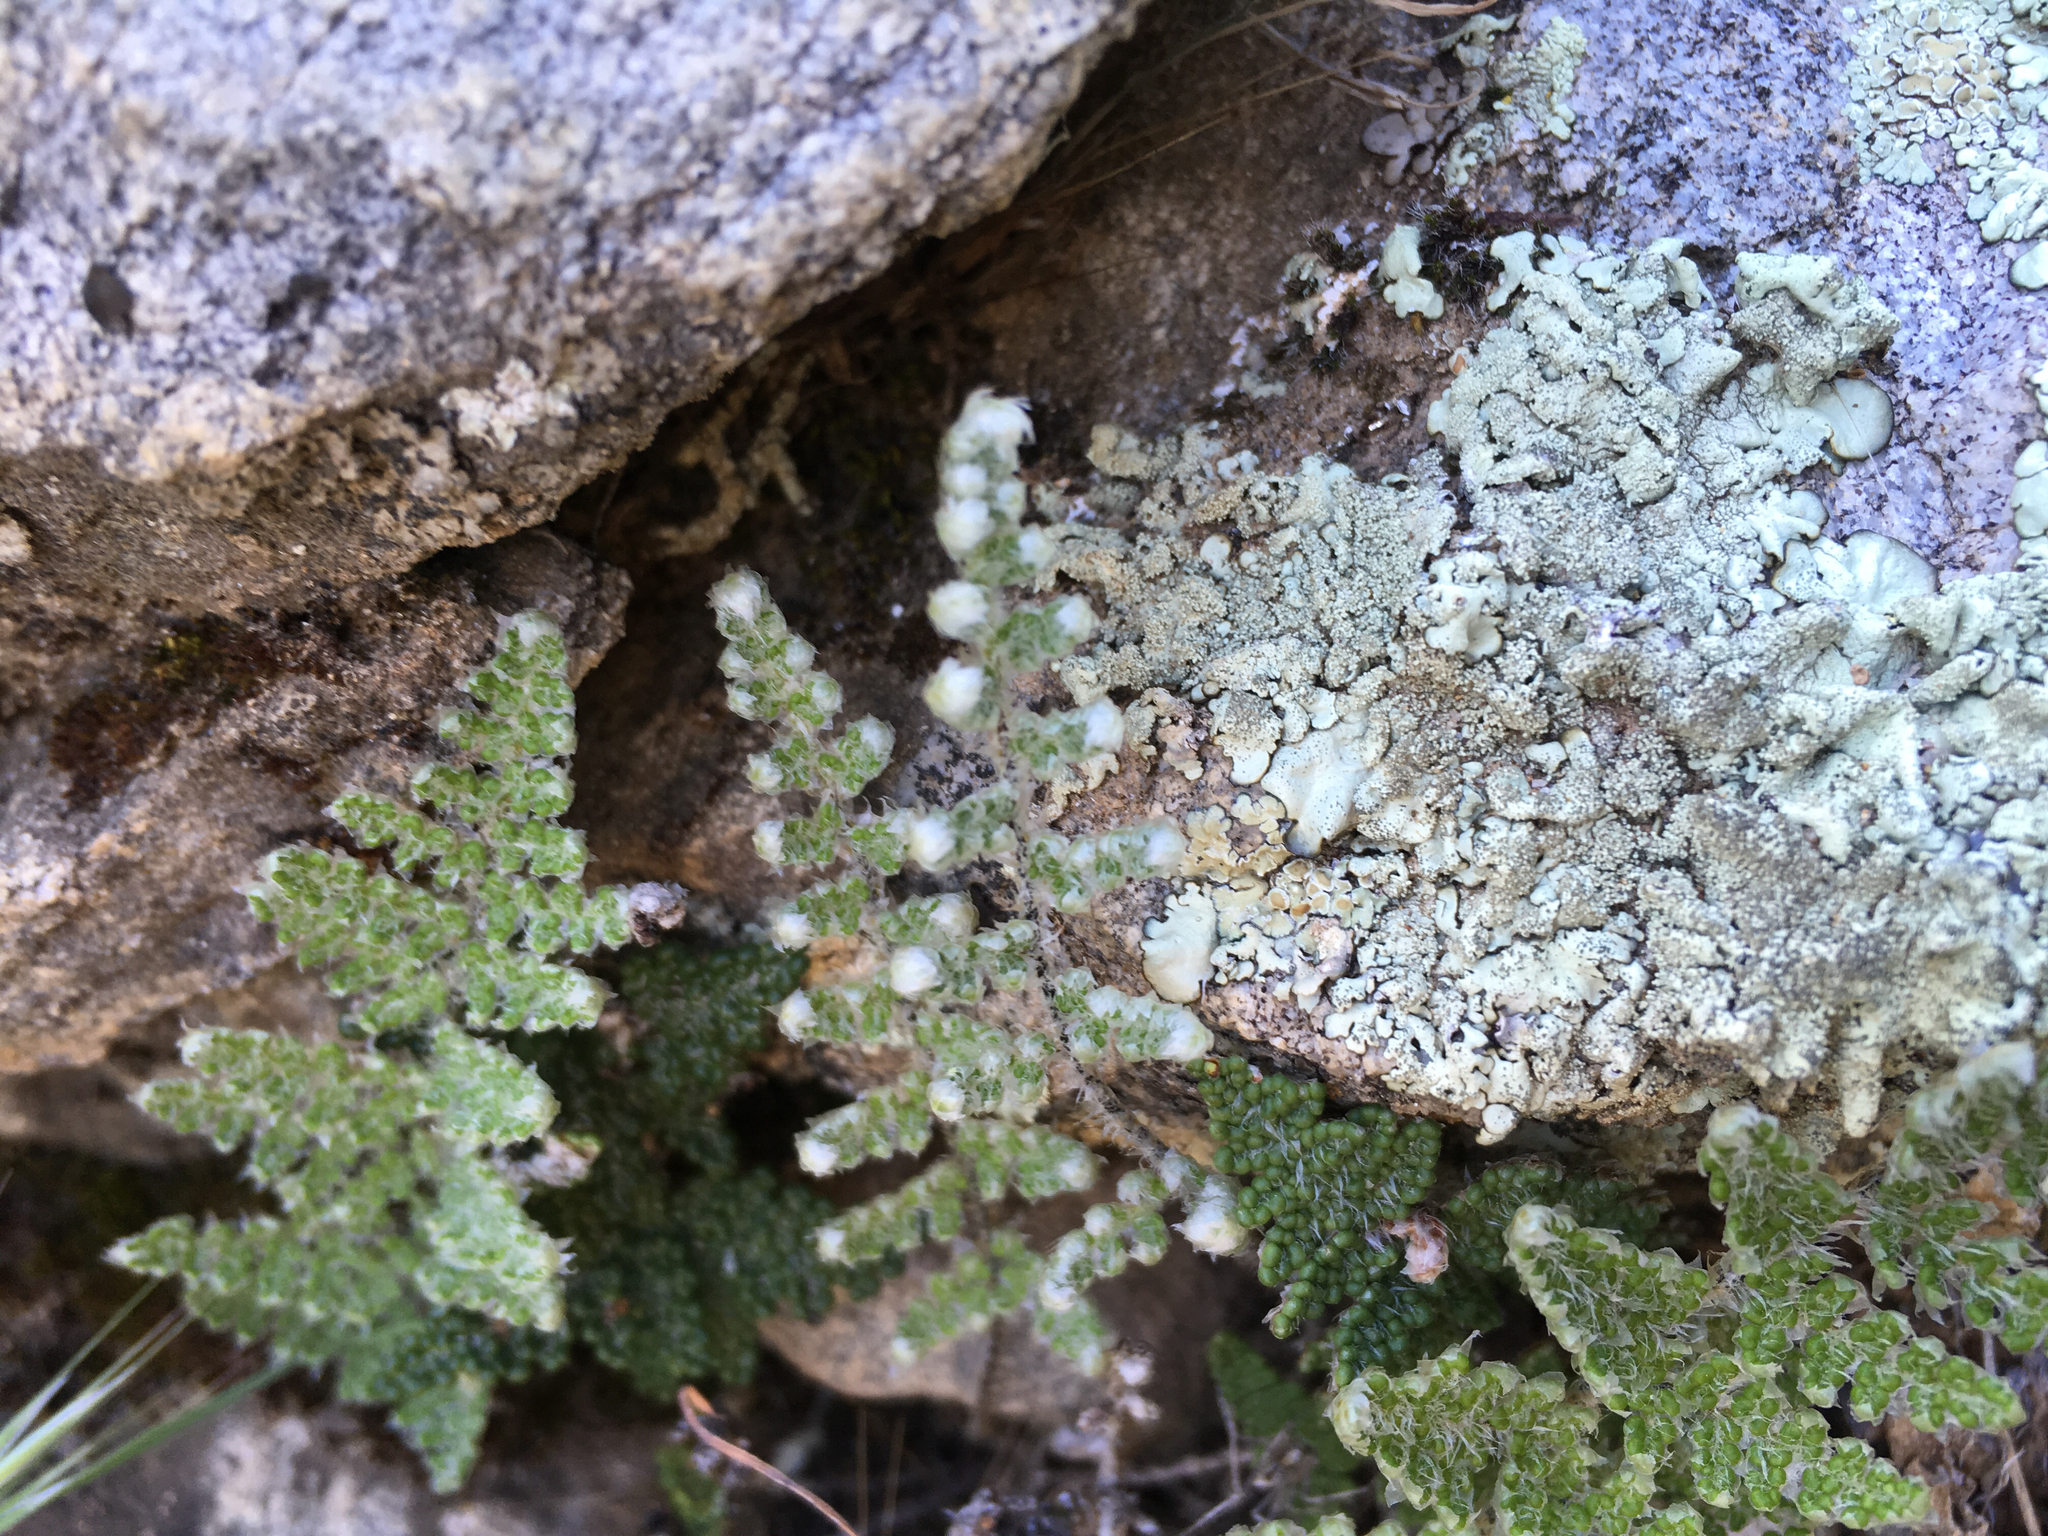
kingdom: Plantae
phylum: Tracheophyta
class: Polypodiopsida
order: Polypodiales
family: Pteridaceae
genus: Myriopteris
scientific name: Myriopteris covillei
